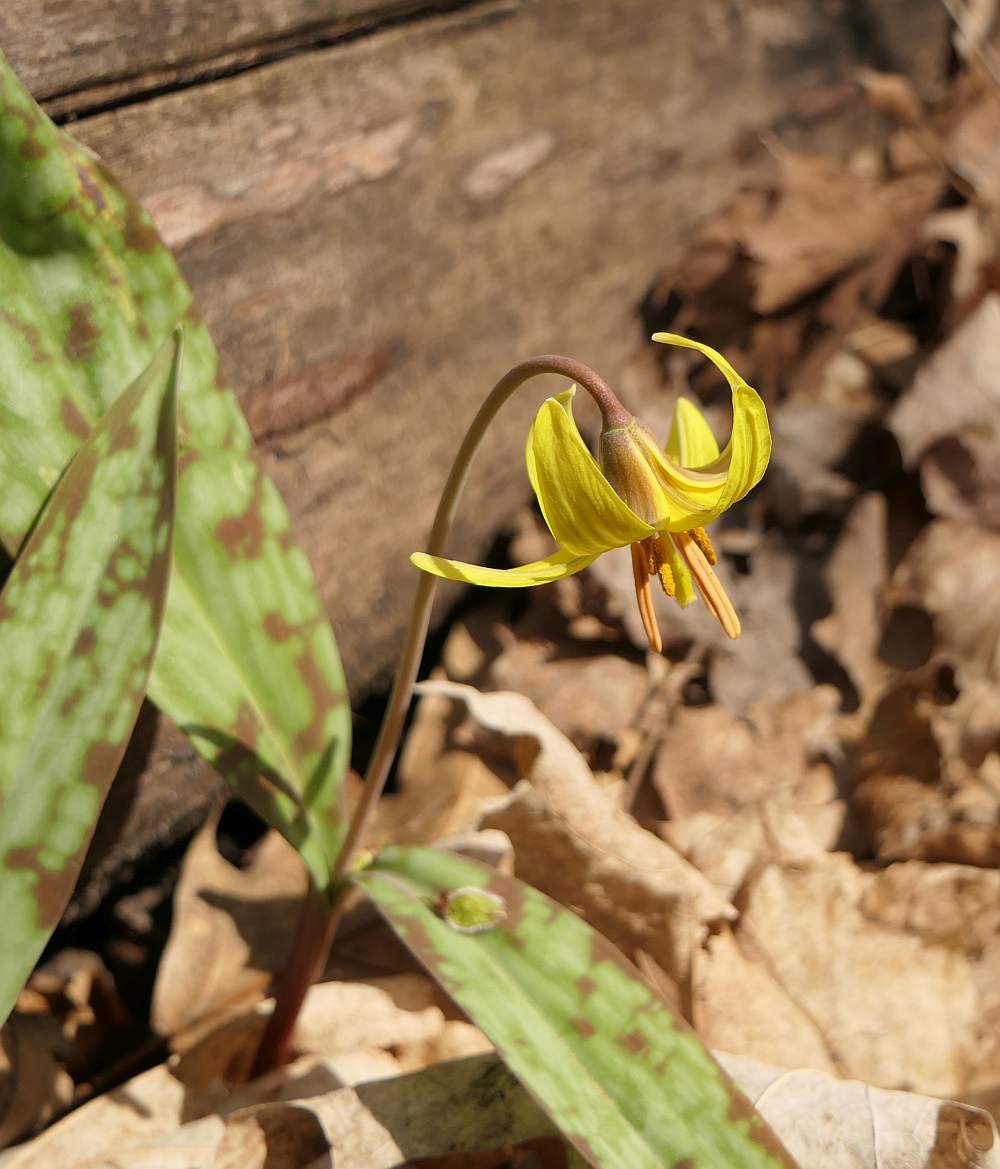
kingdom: Plantae
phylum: Tracheophyta
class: Liliopsida
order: Liliales
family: Liliaceae
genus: Erythronium
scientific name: Erythronium americanum
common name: Yellow adder's-tongue
